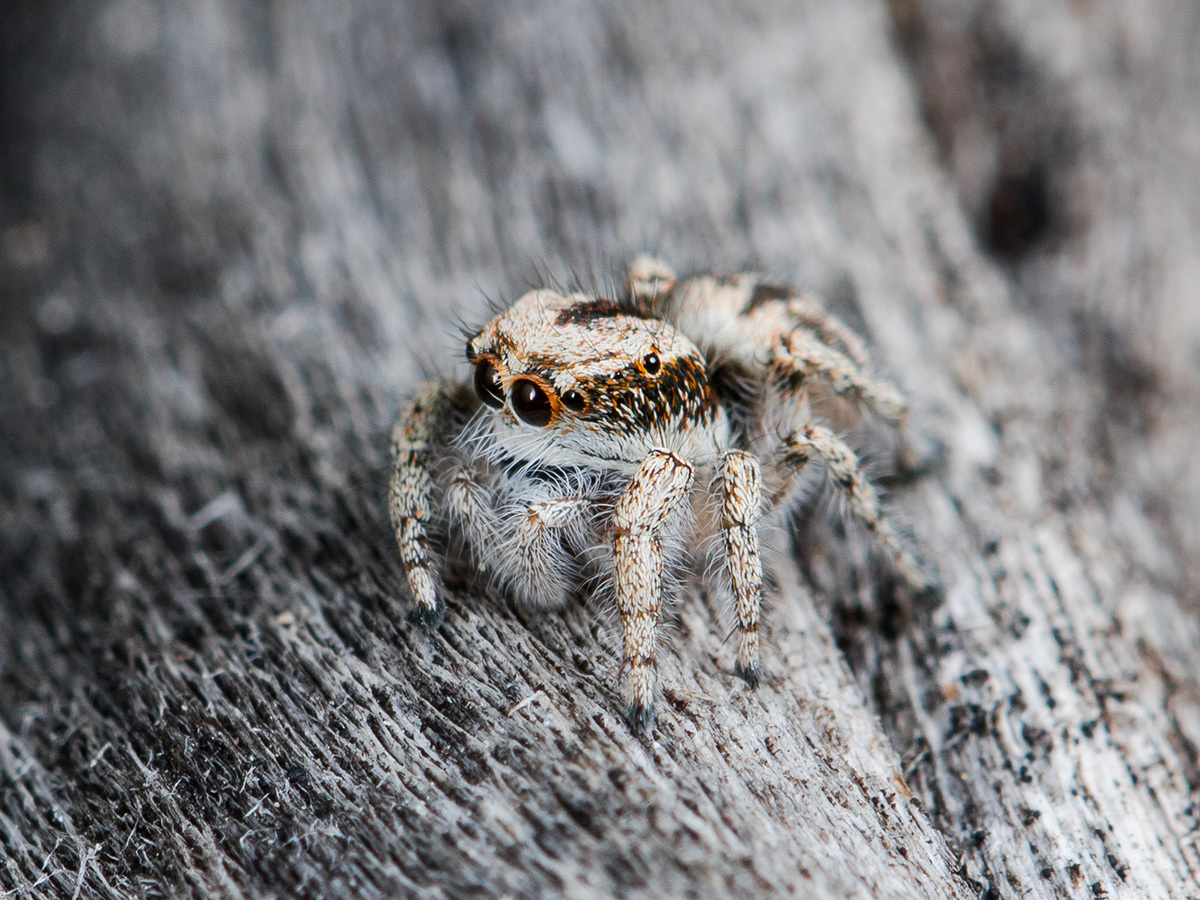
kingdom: Animalia
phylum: Arthropoda
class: Arachnida
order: Araneae
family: Salticidae
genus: Pseudomogrus
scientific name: Pseudomogrus dalaensis
